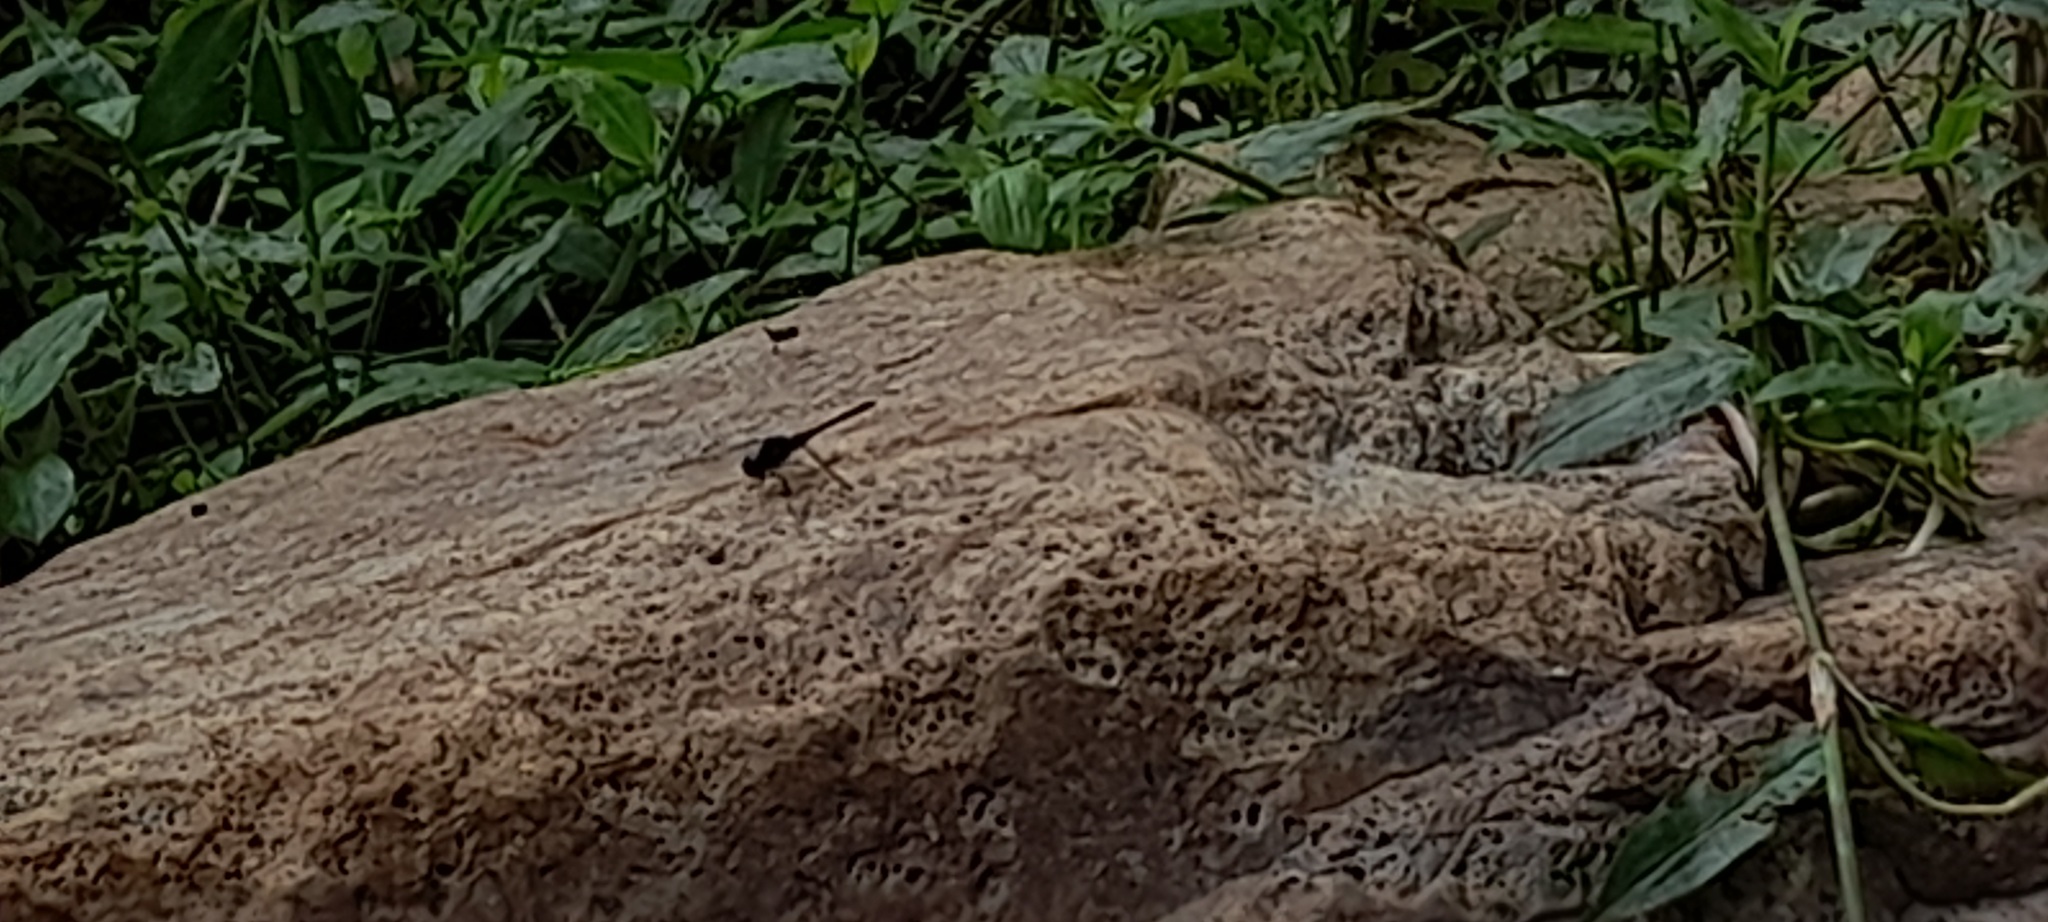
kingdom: Animalia
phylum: Arthropoda
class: Insecta
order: Odonata
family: Libellulidae
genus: Trithemis
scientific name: Trithemis festiva
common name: Indigo dropwing
